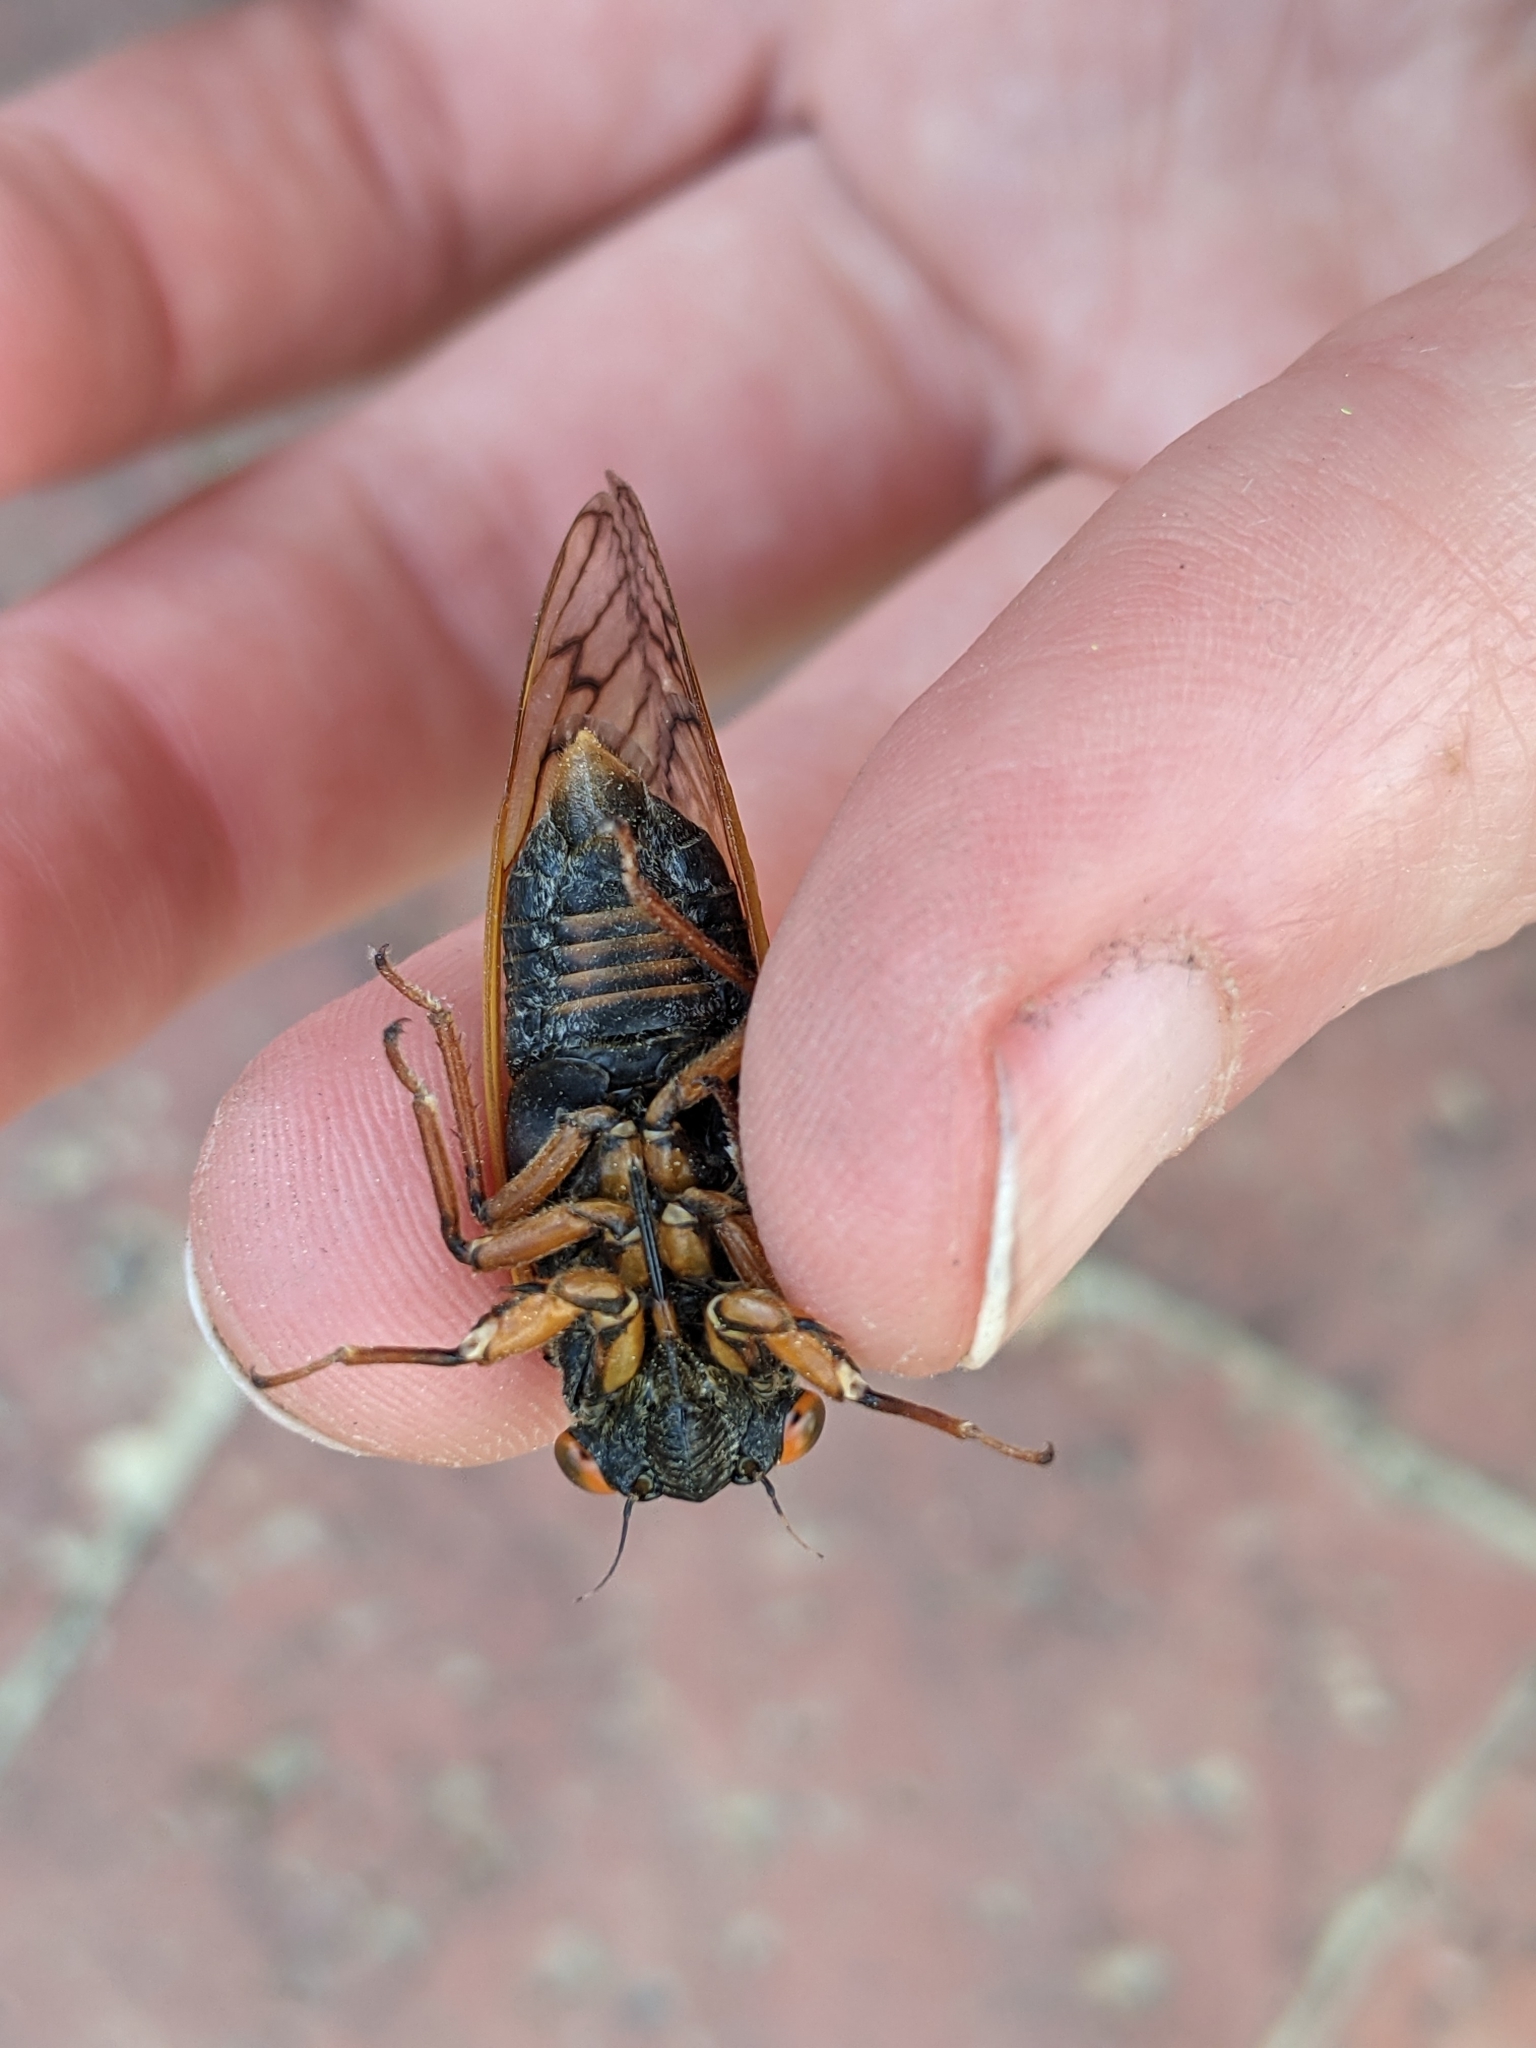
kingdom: Animalia
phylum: Arthropoda
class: Insecta
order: Hemiptera
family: Cicadidae
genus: Magicicada
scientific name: Magicicada septendecula
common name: Decula periodical cicada
